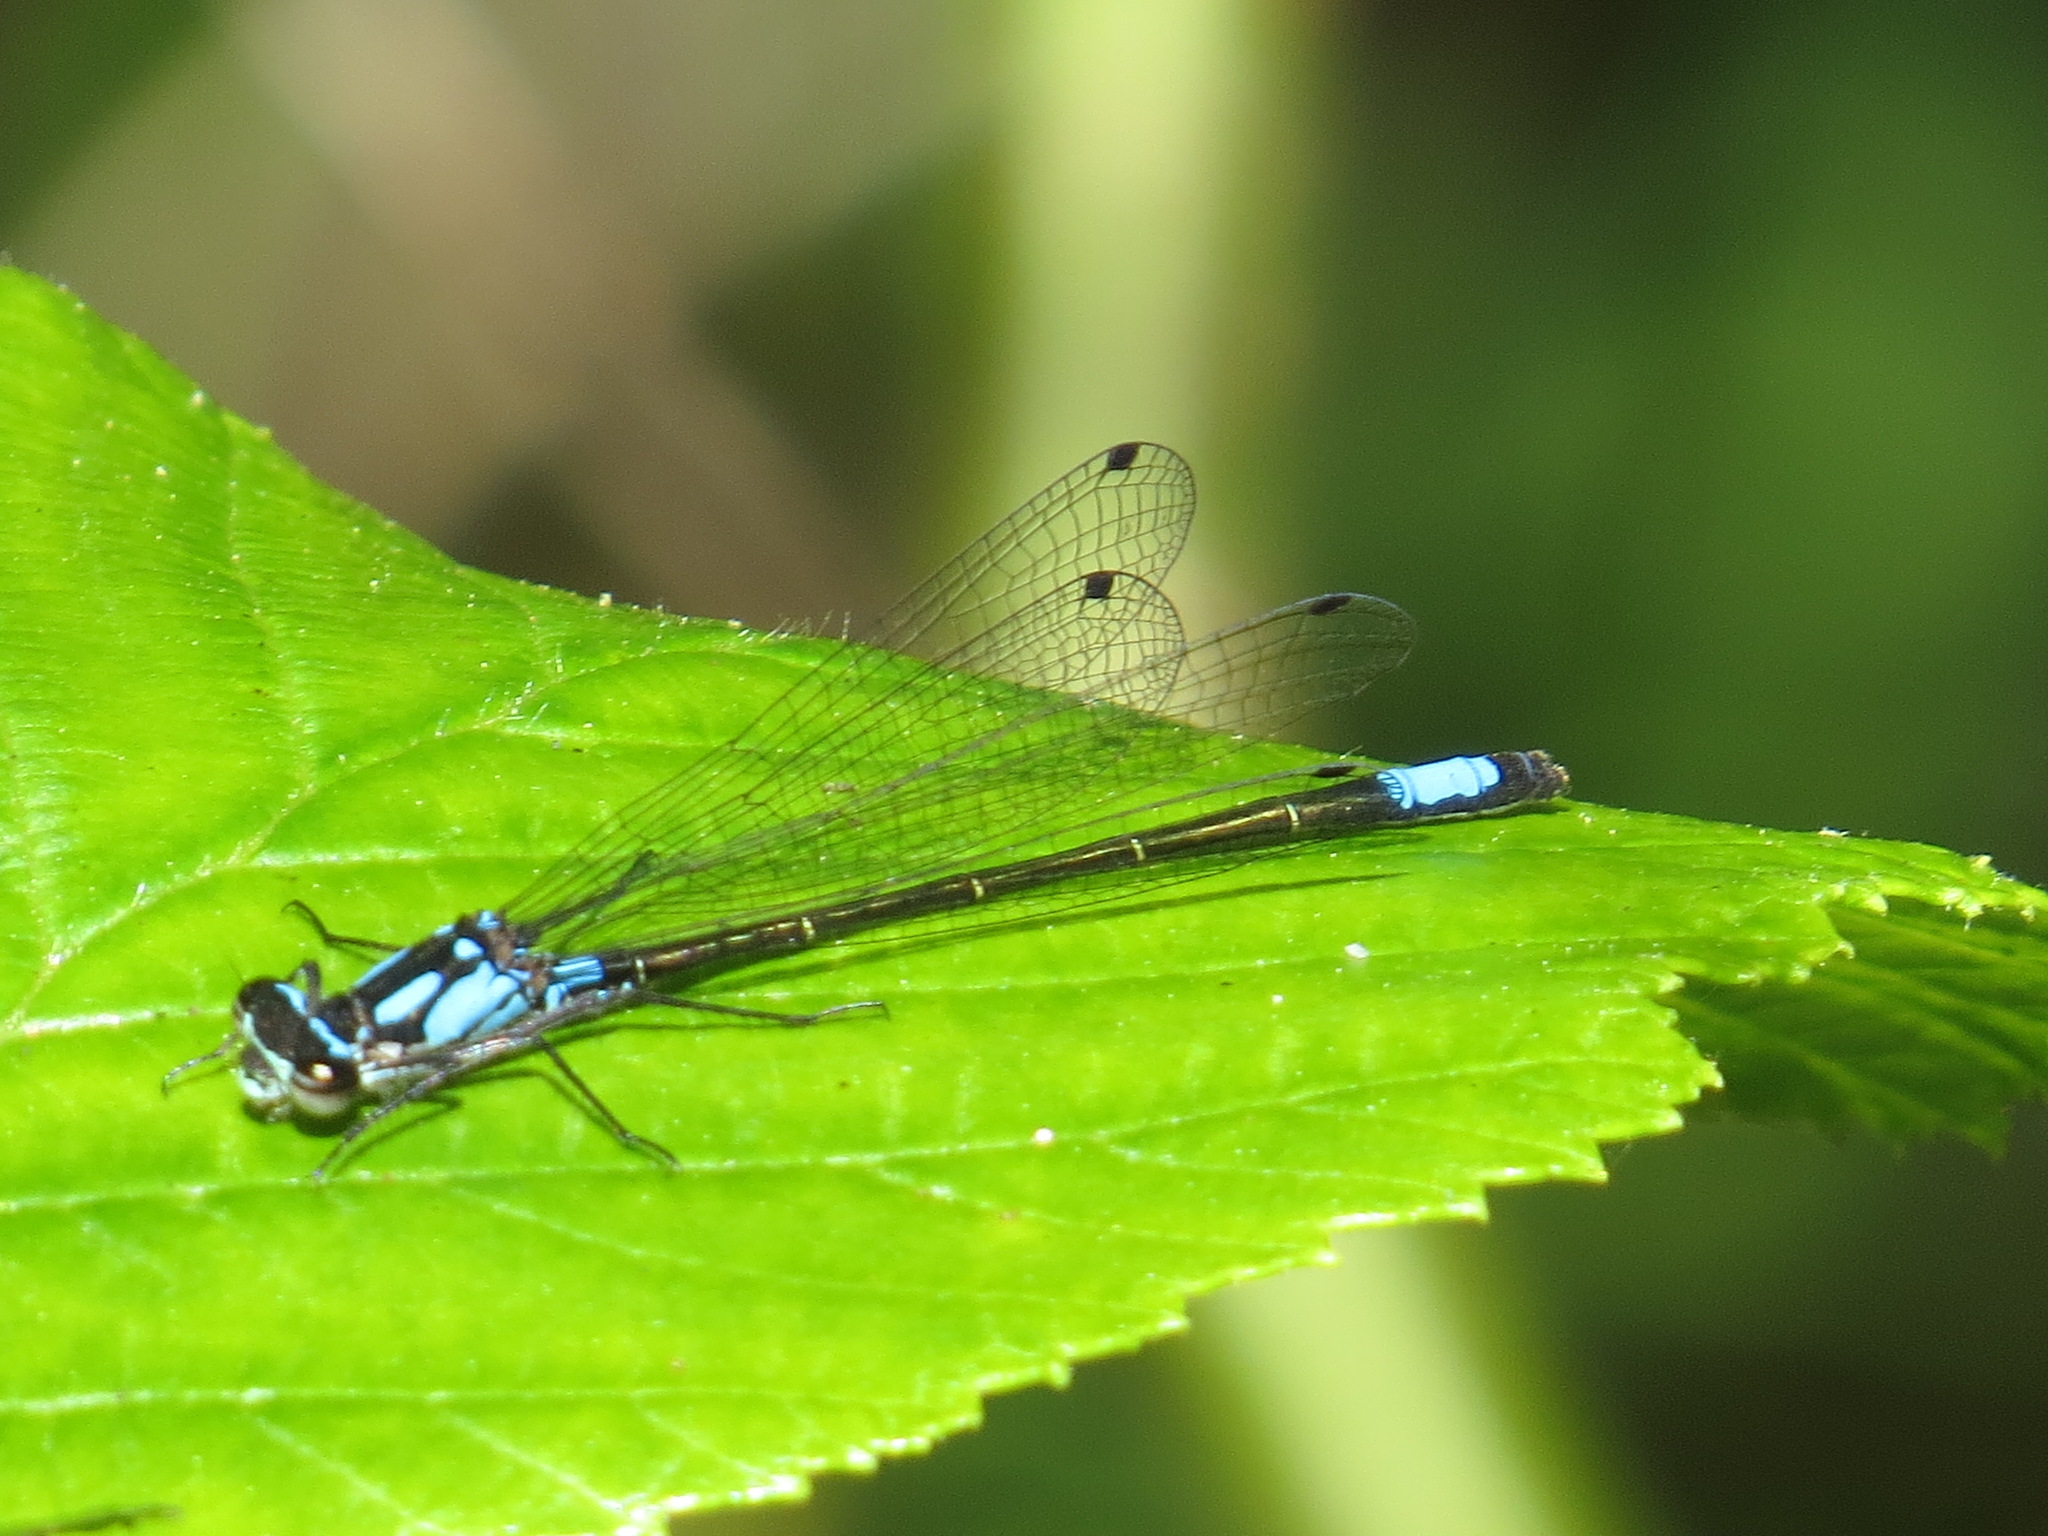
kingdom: Animalia
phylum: Arthropoda
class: Insecta
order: Odonata
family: Coenagrionidae
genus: Zoniagrion
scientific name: Zoniagrion exclamationis
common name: Exclamation damsel
